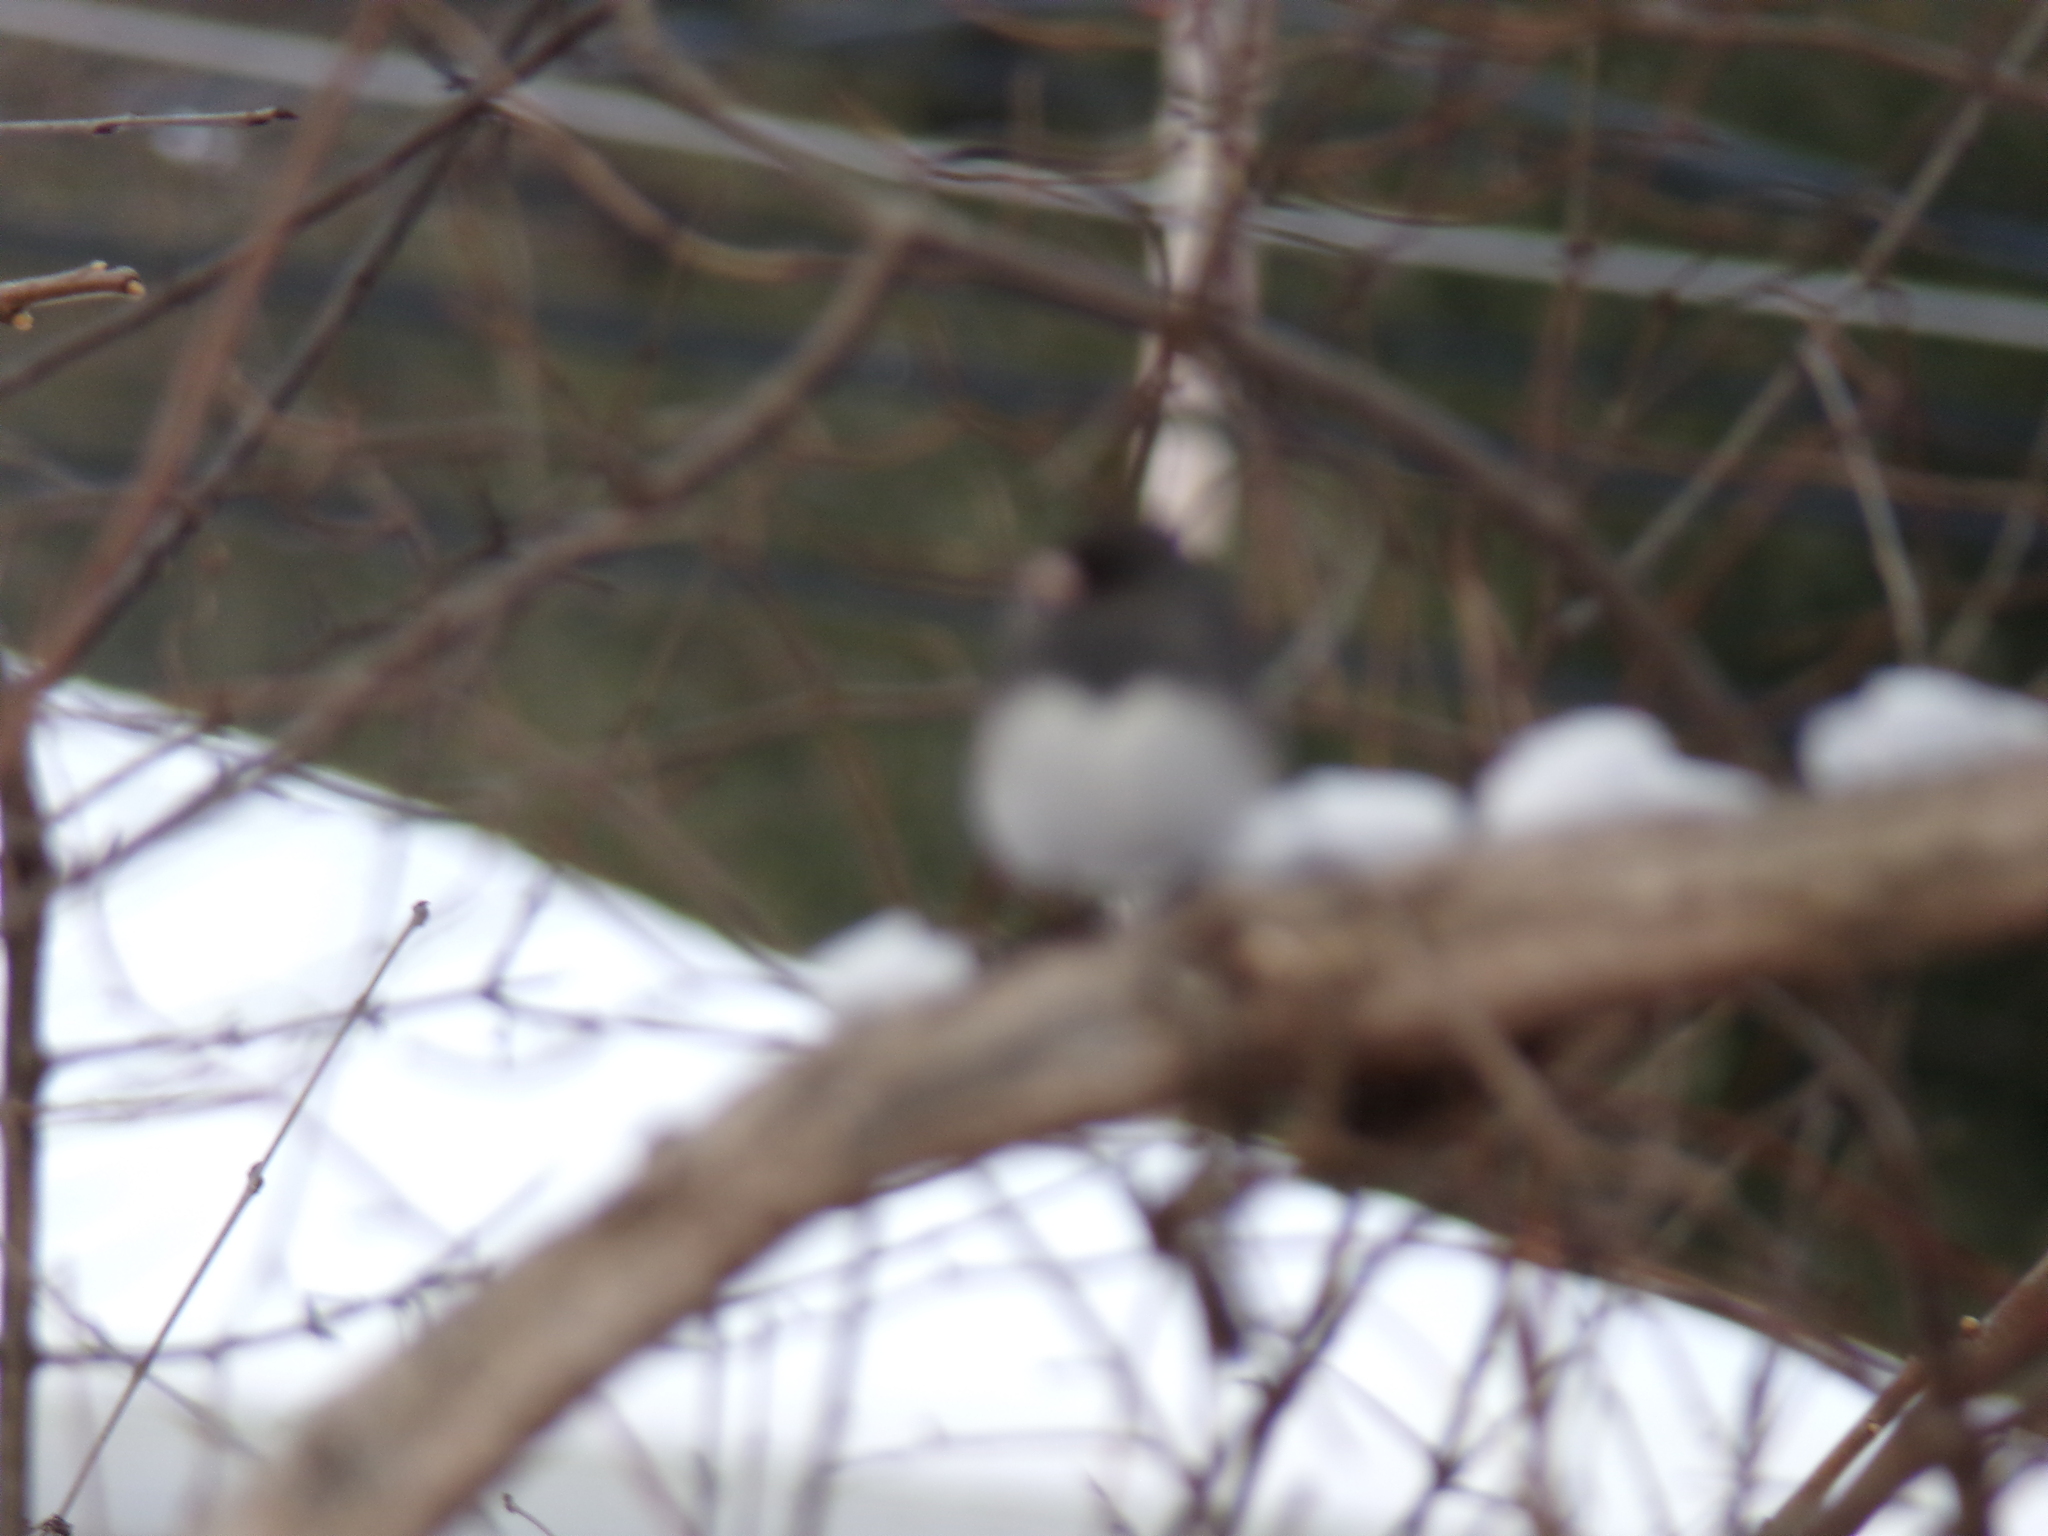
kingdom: Animalia
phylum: Chordata
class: Aves
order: Passeriformes
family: Passerellidae
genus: Junco
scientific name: Junco hyemalis
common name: Dark-eyed junco
